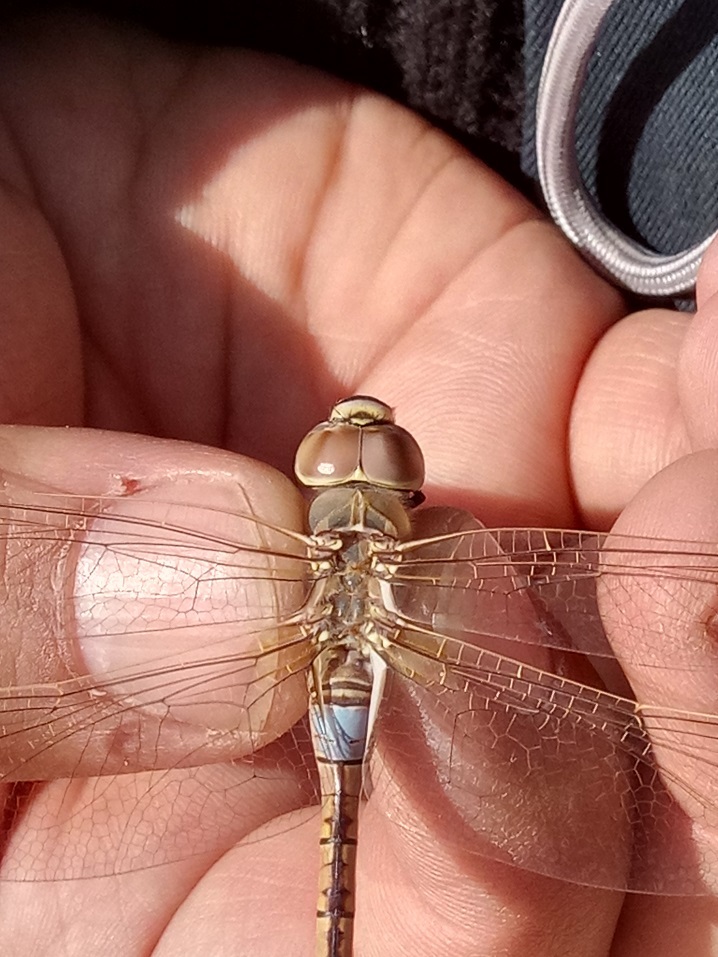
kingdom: Animalia
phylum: Arthropoda
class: Insecta
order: Odonata
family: Aeshnidae
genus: Anax
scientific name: Anax ephippiger
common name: Vagrant emperor
